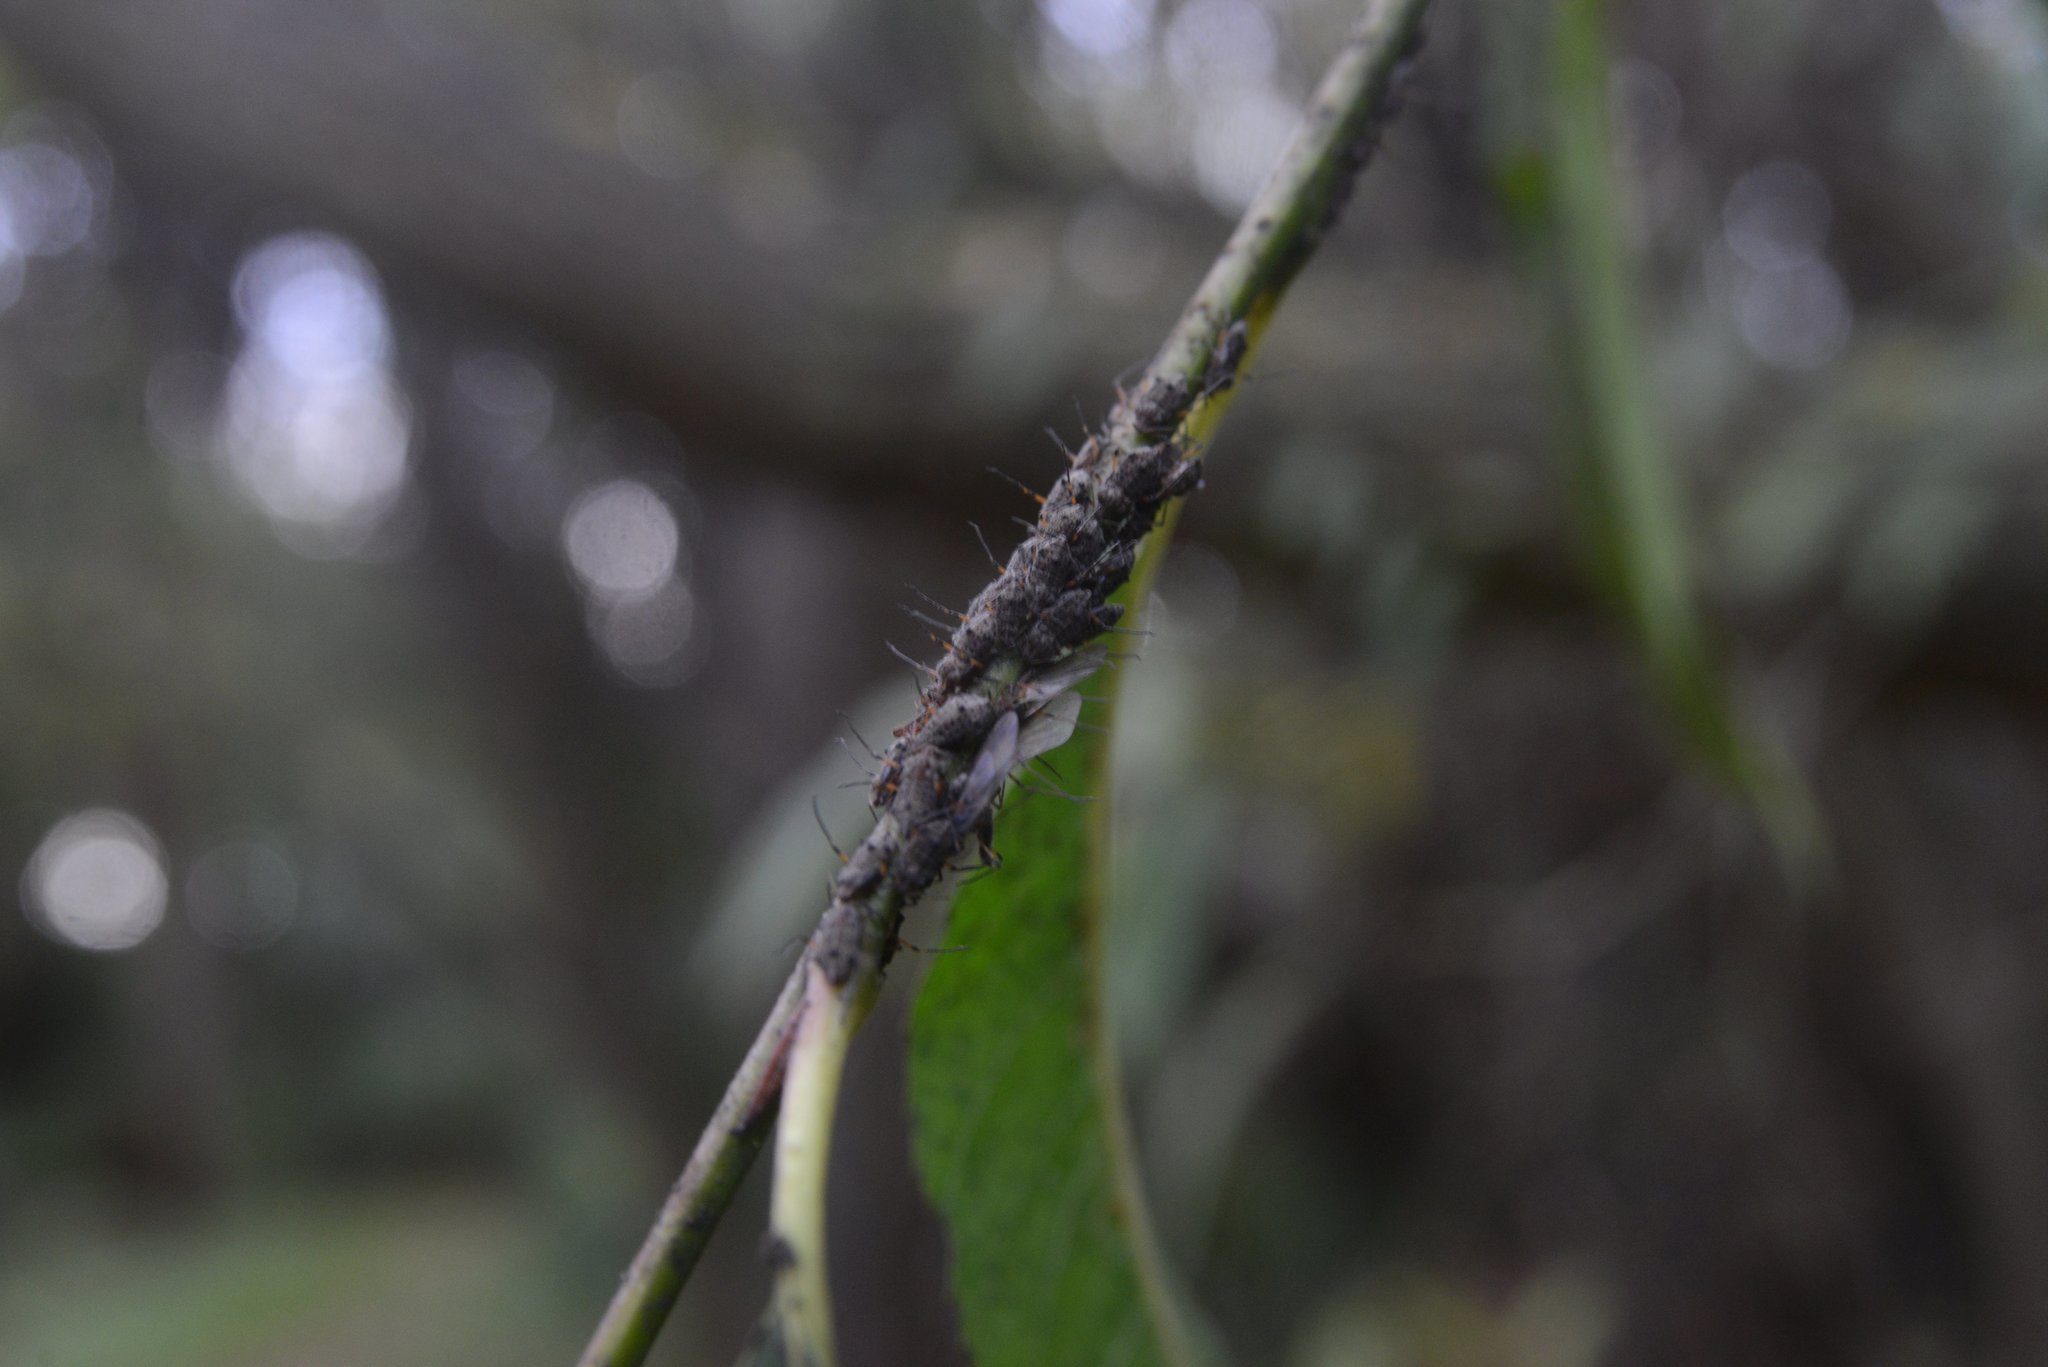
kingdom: Animalia
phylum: Arthropoda
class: Insecta
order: Hemiptera
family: Aphididae
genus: Tuberolachnus
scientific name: Tuberolachnus salignus
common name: Giant willow aphid
